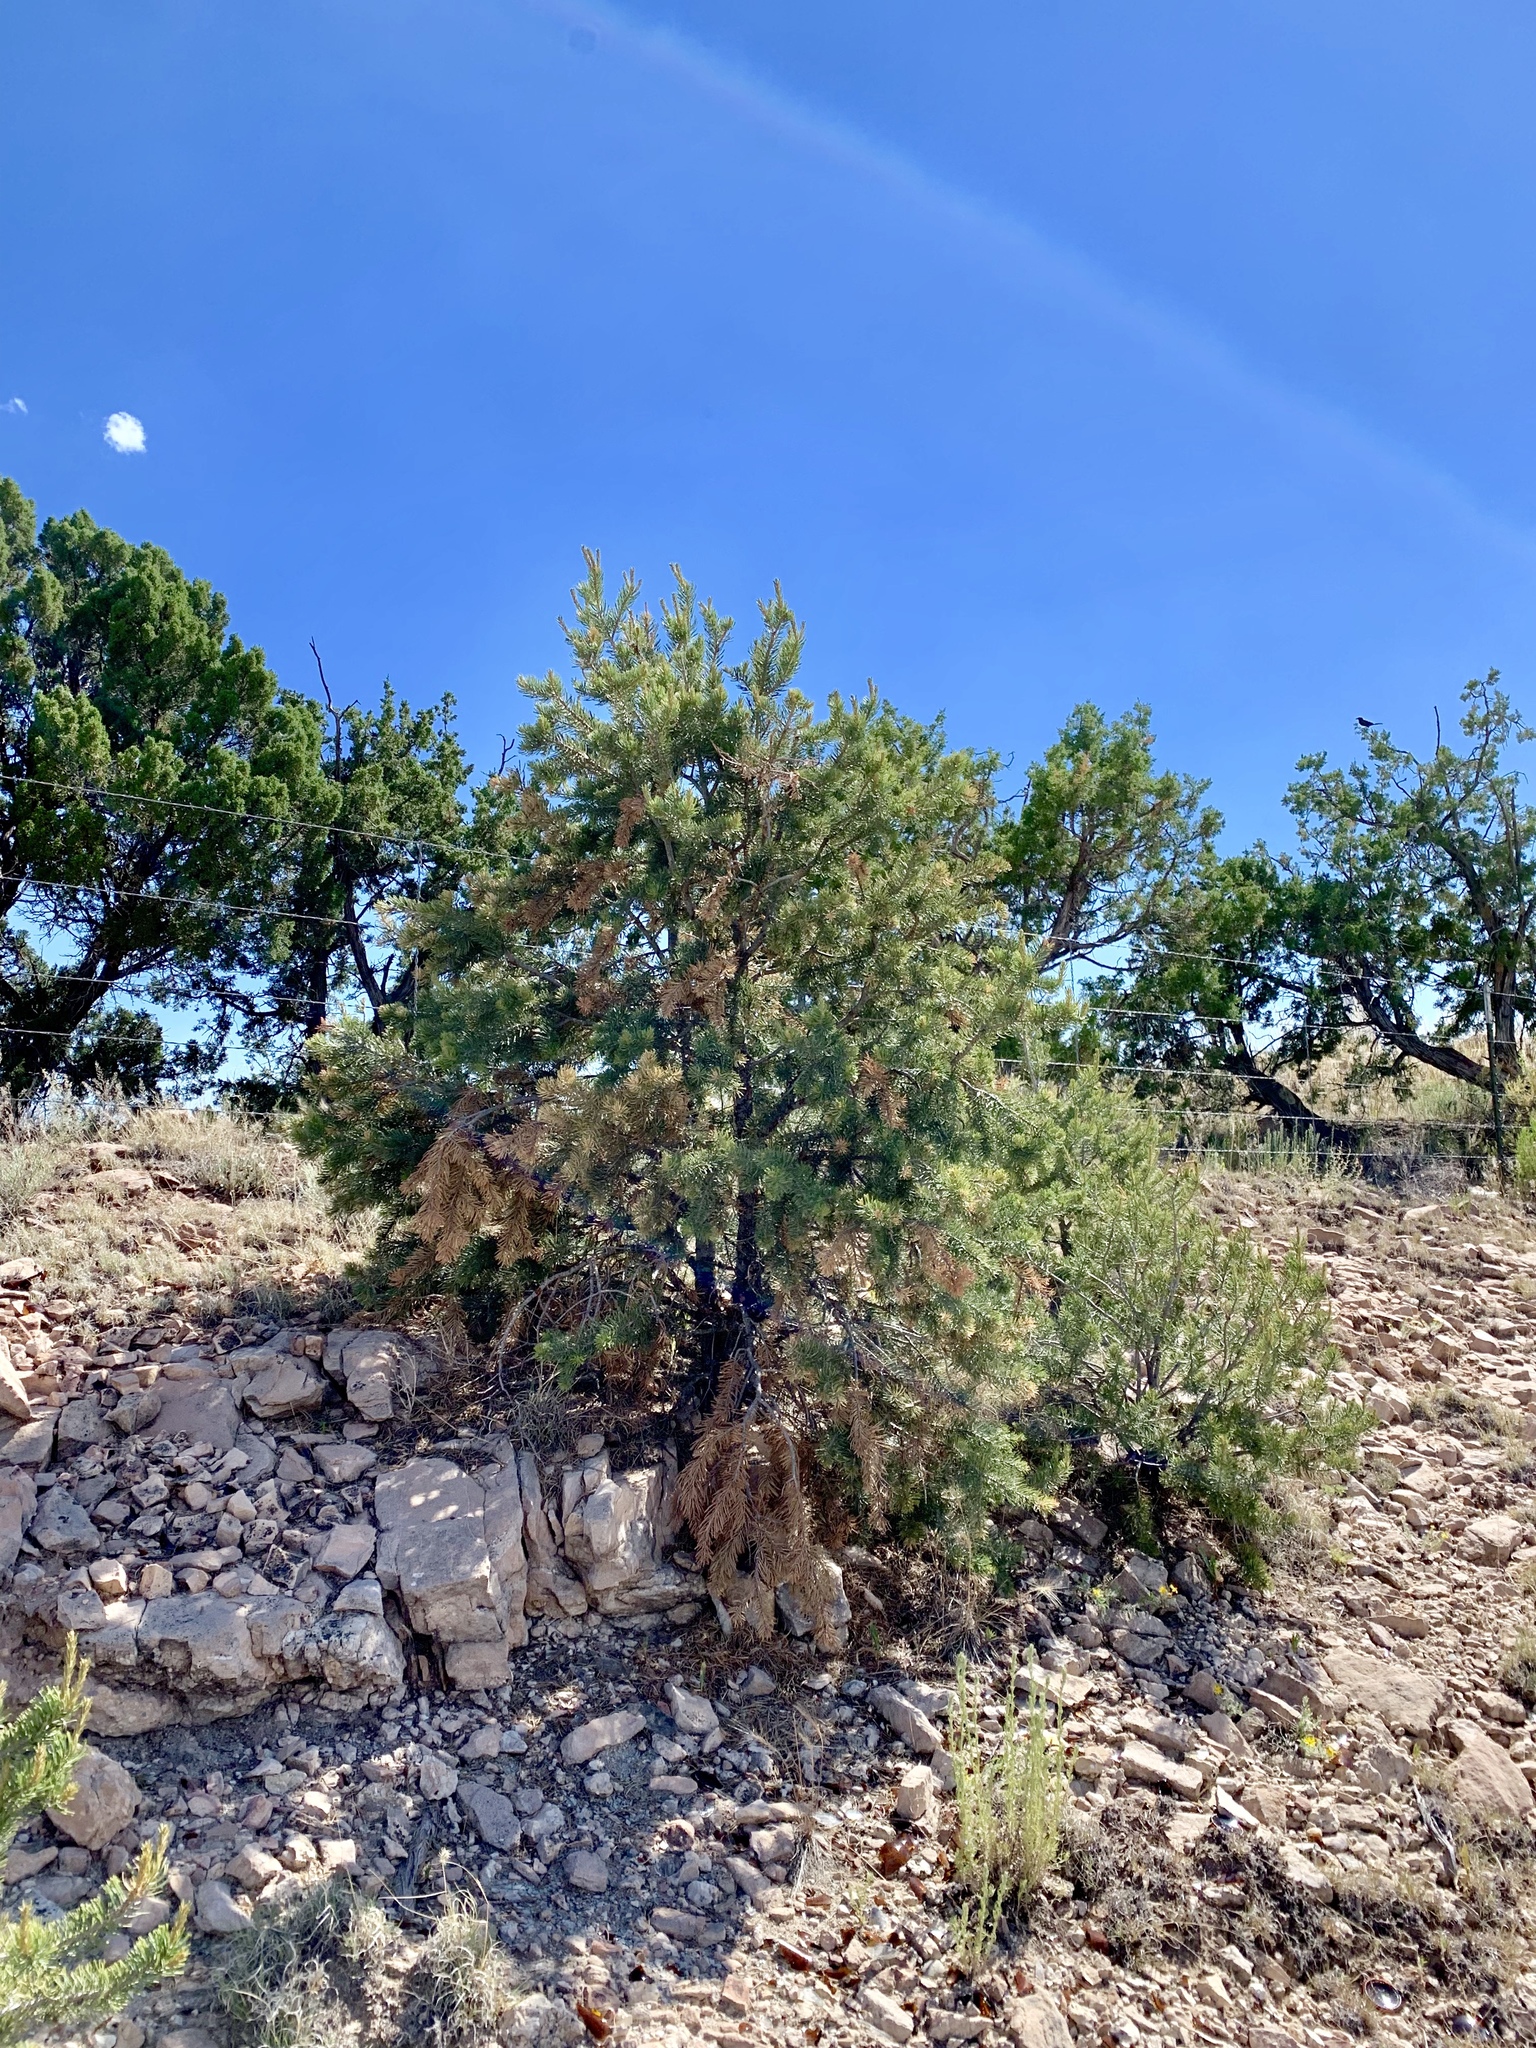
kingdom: Plantae
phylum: Tracheophyta
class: Pinopsida
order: Pinales
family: Pinaceae
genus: Pinus
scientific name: Pinus edulis
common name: Colorado pinyon
